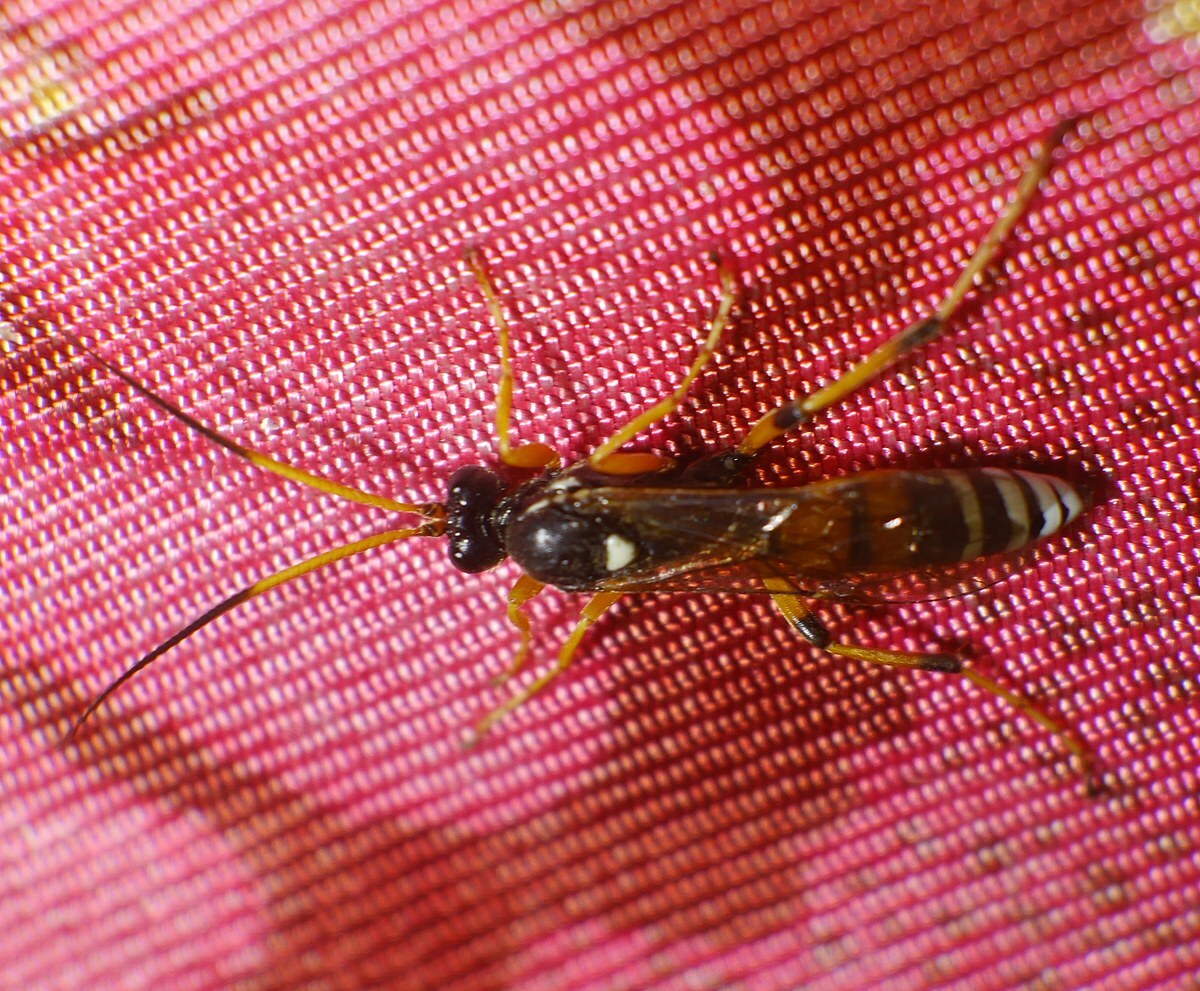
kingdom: Animalia
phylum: Arthropoda
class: Insecta
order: Hymenoptera
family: Ichneumonidae
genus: Eutanyacra
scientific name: Eutanyacra picta
